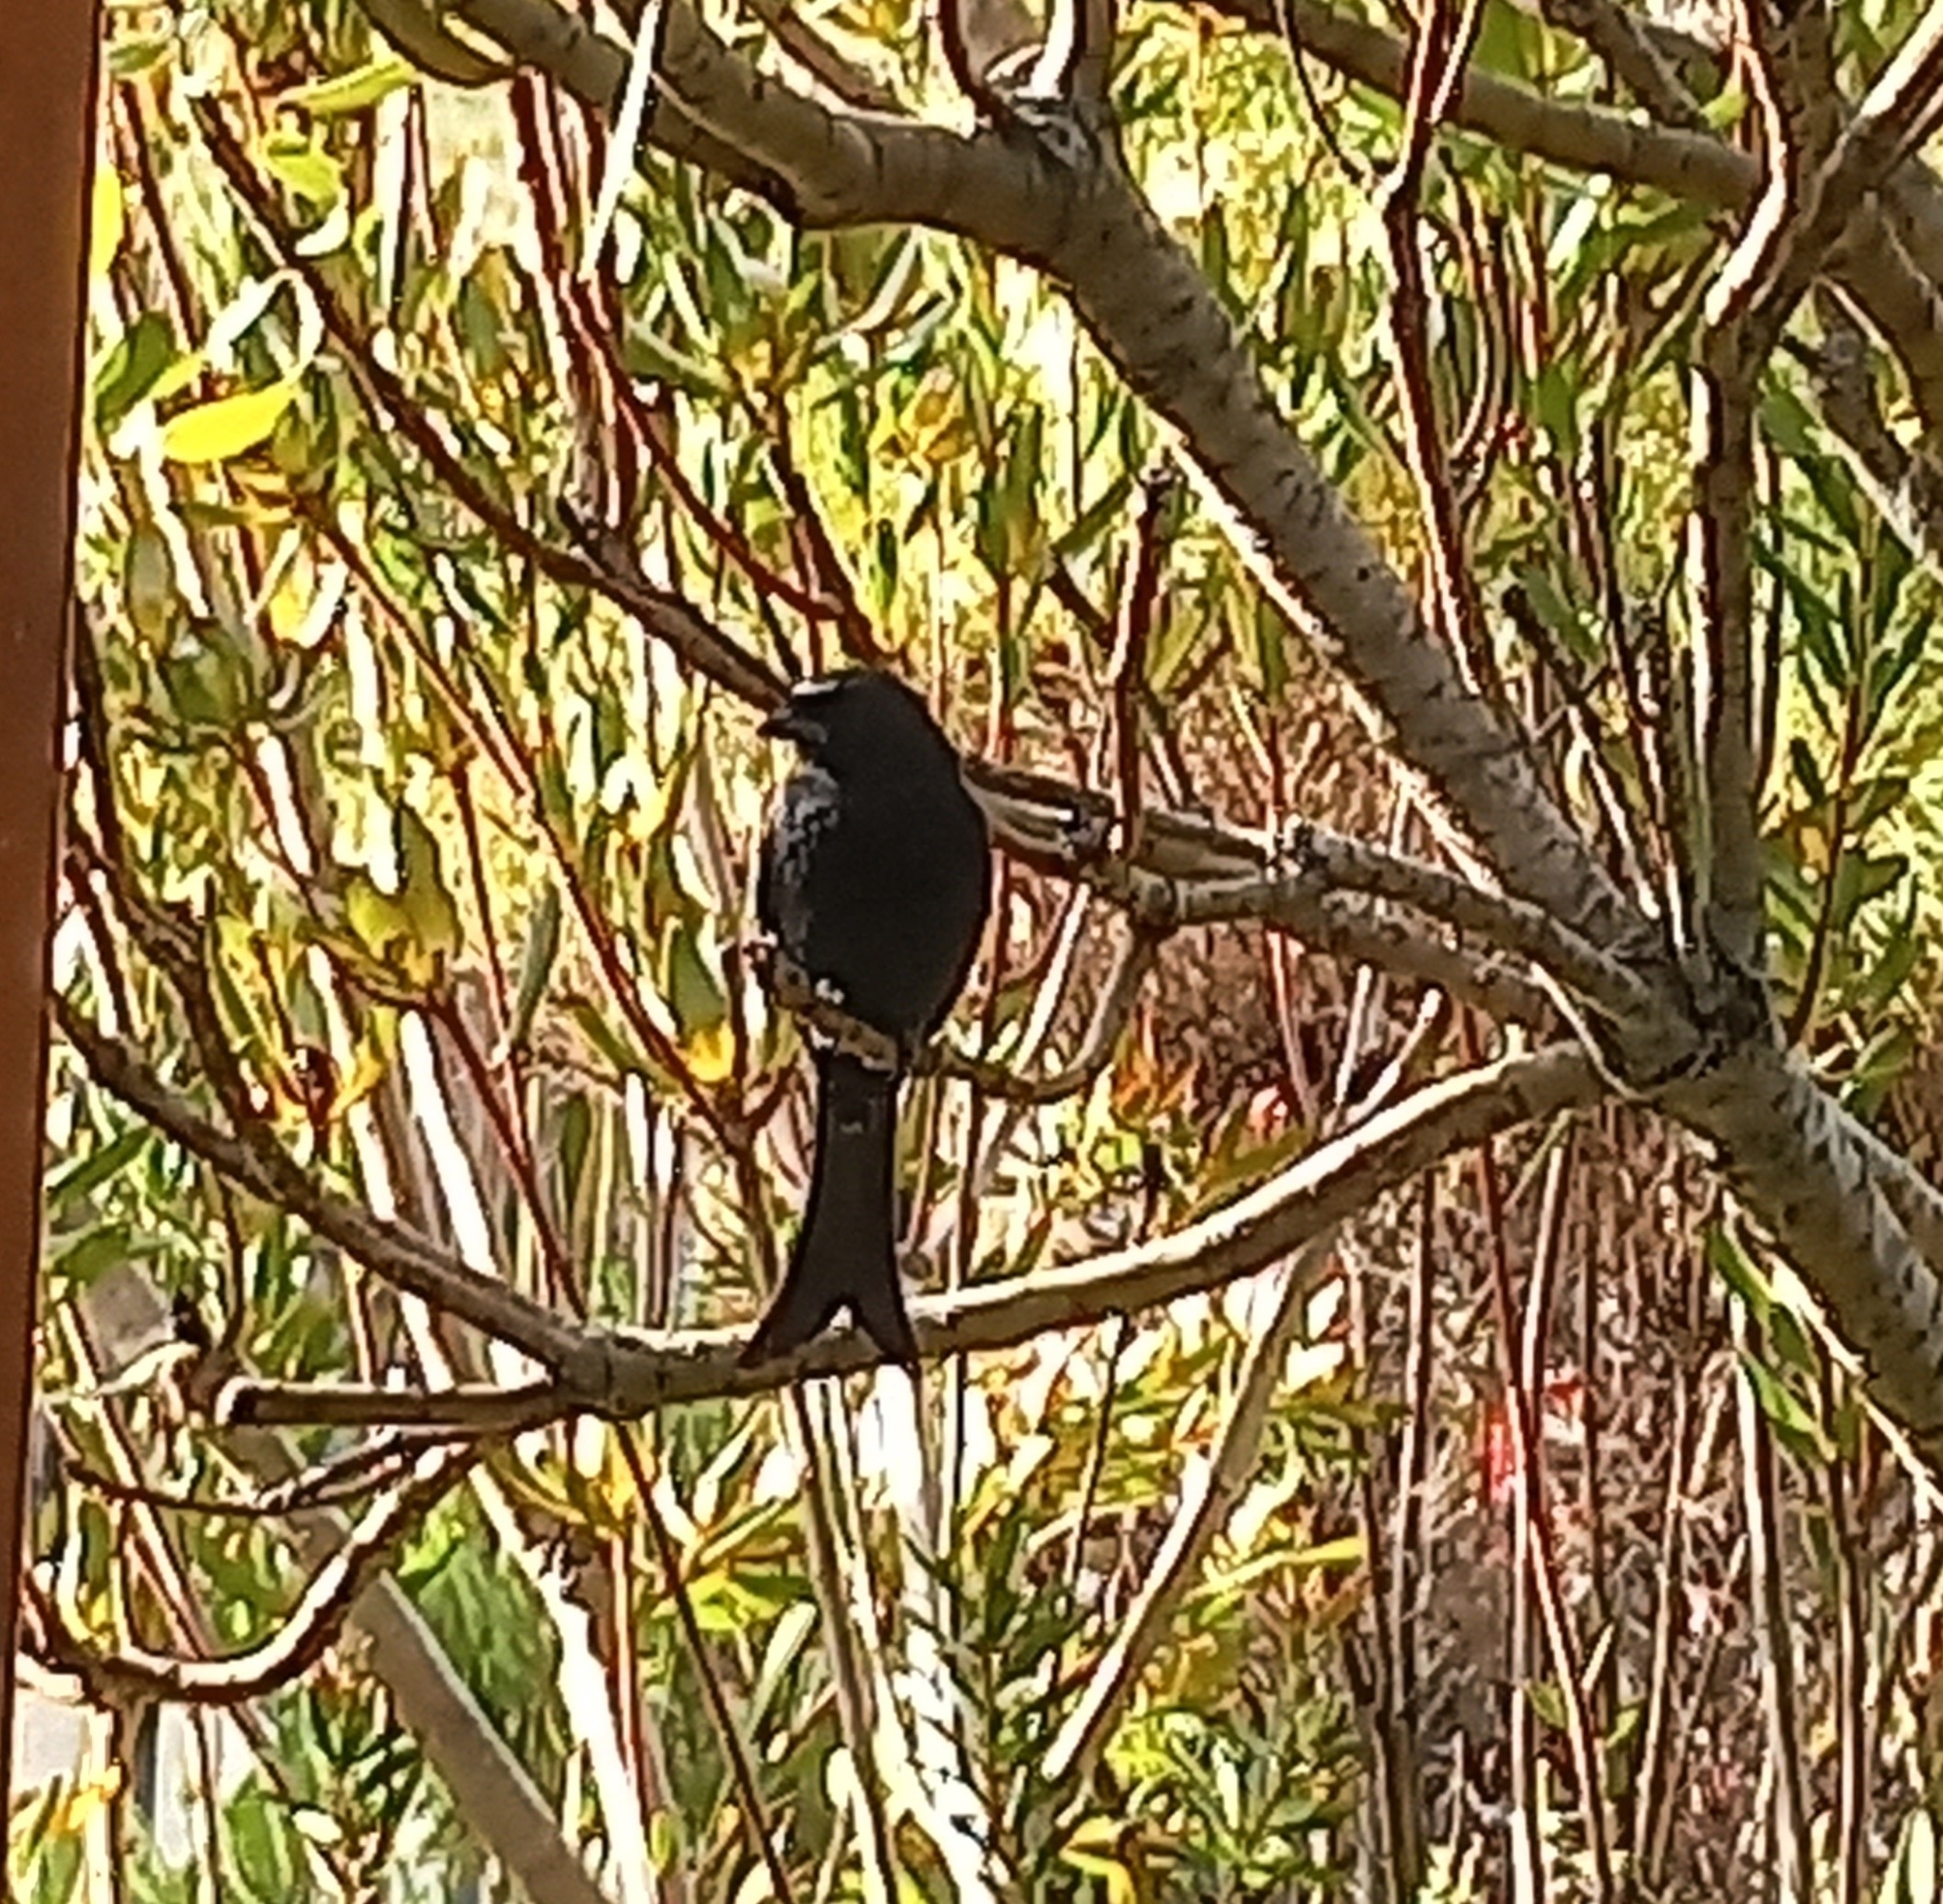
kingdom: Animalia
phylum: Chordata
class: Aves
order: Passeriformes
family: Dicruridae
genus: Dicrurus
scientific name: Dicrurus adsimilis
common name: Fork-tailed drongo
